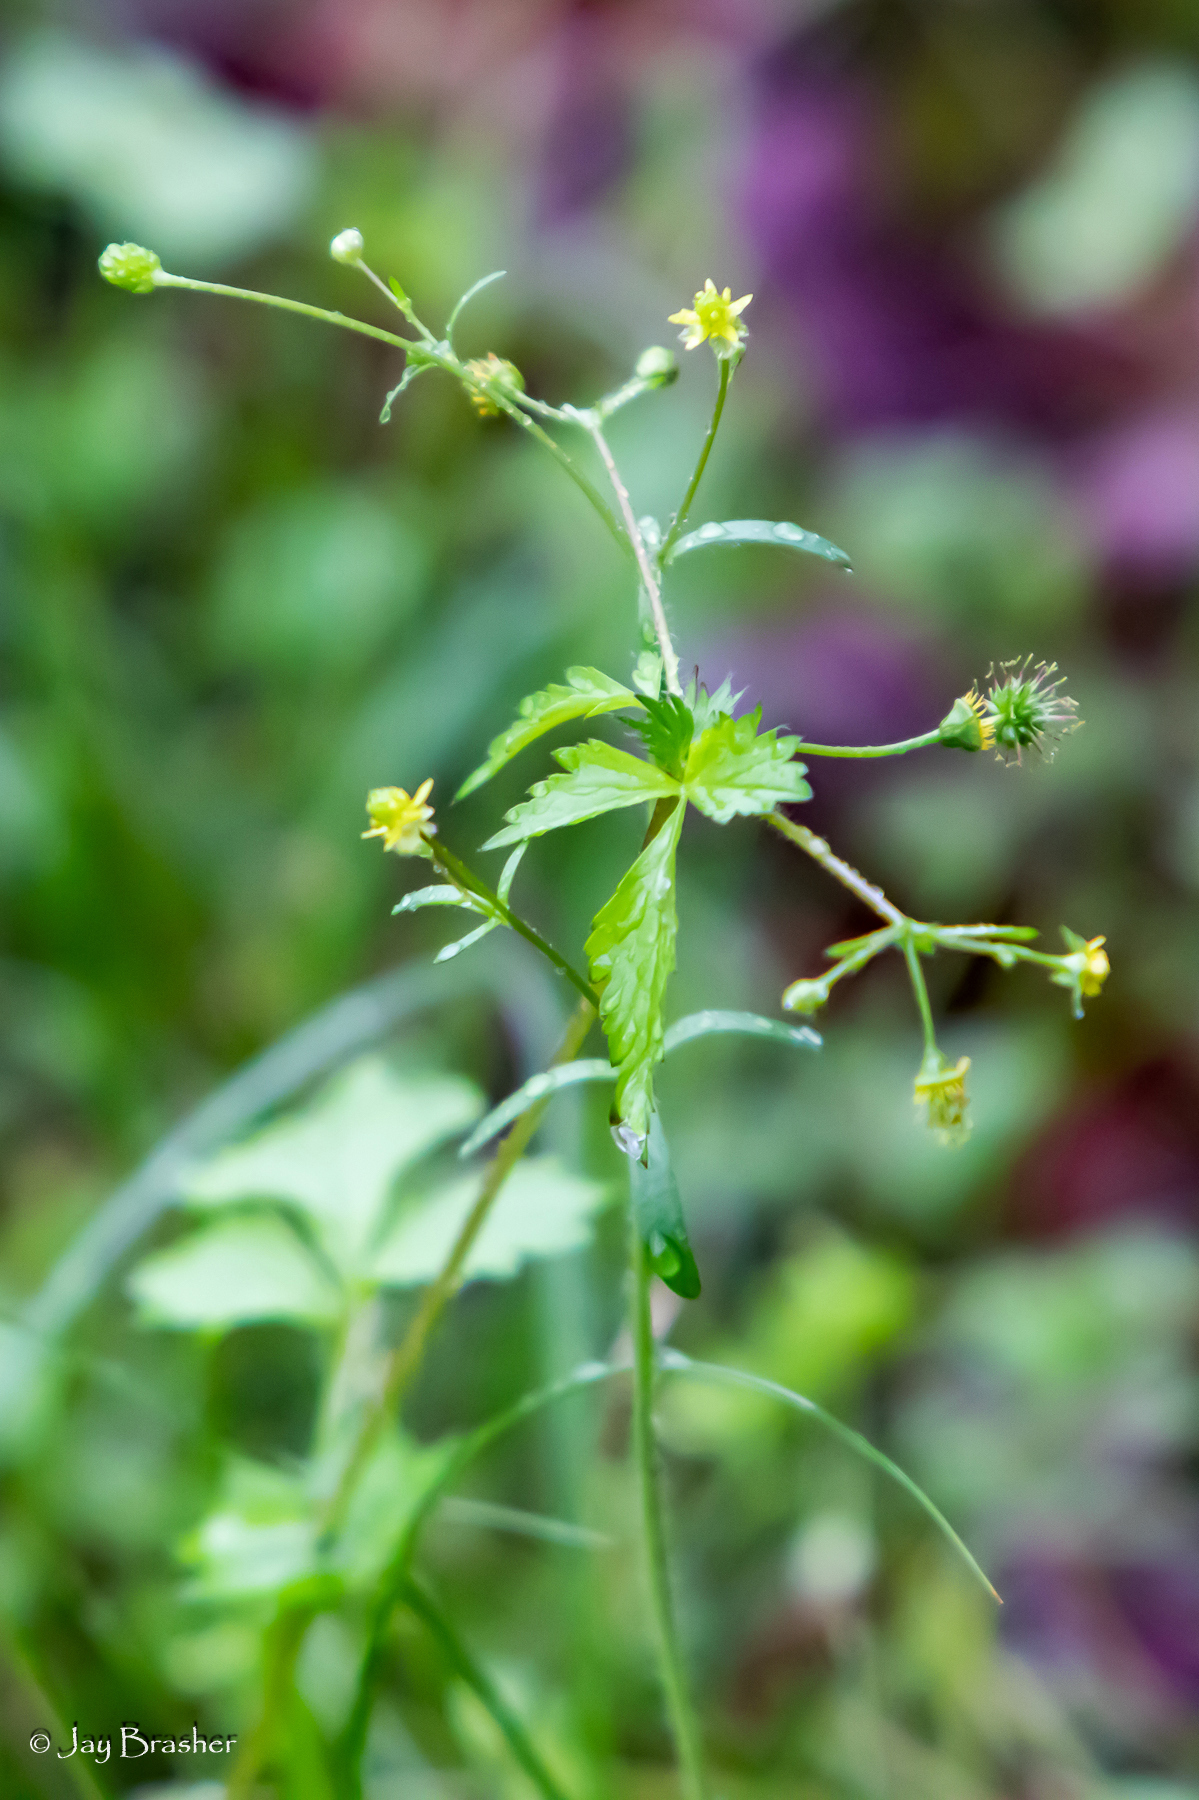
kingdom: Plantae
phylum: Tracheophyta
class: Magnoliopsida
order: Rosales
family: Rosaceae
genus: Geum
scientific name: Geum vernum
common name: Spring avens
